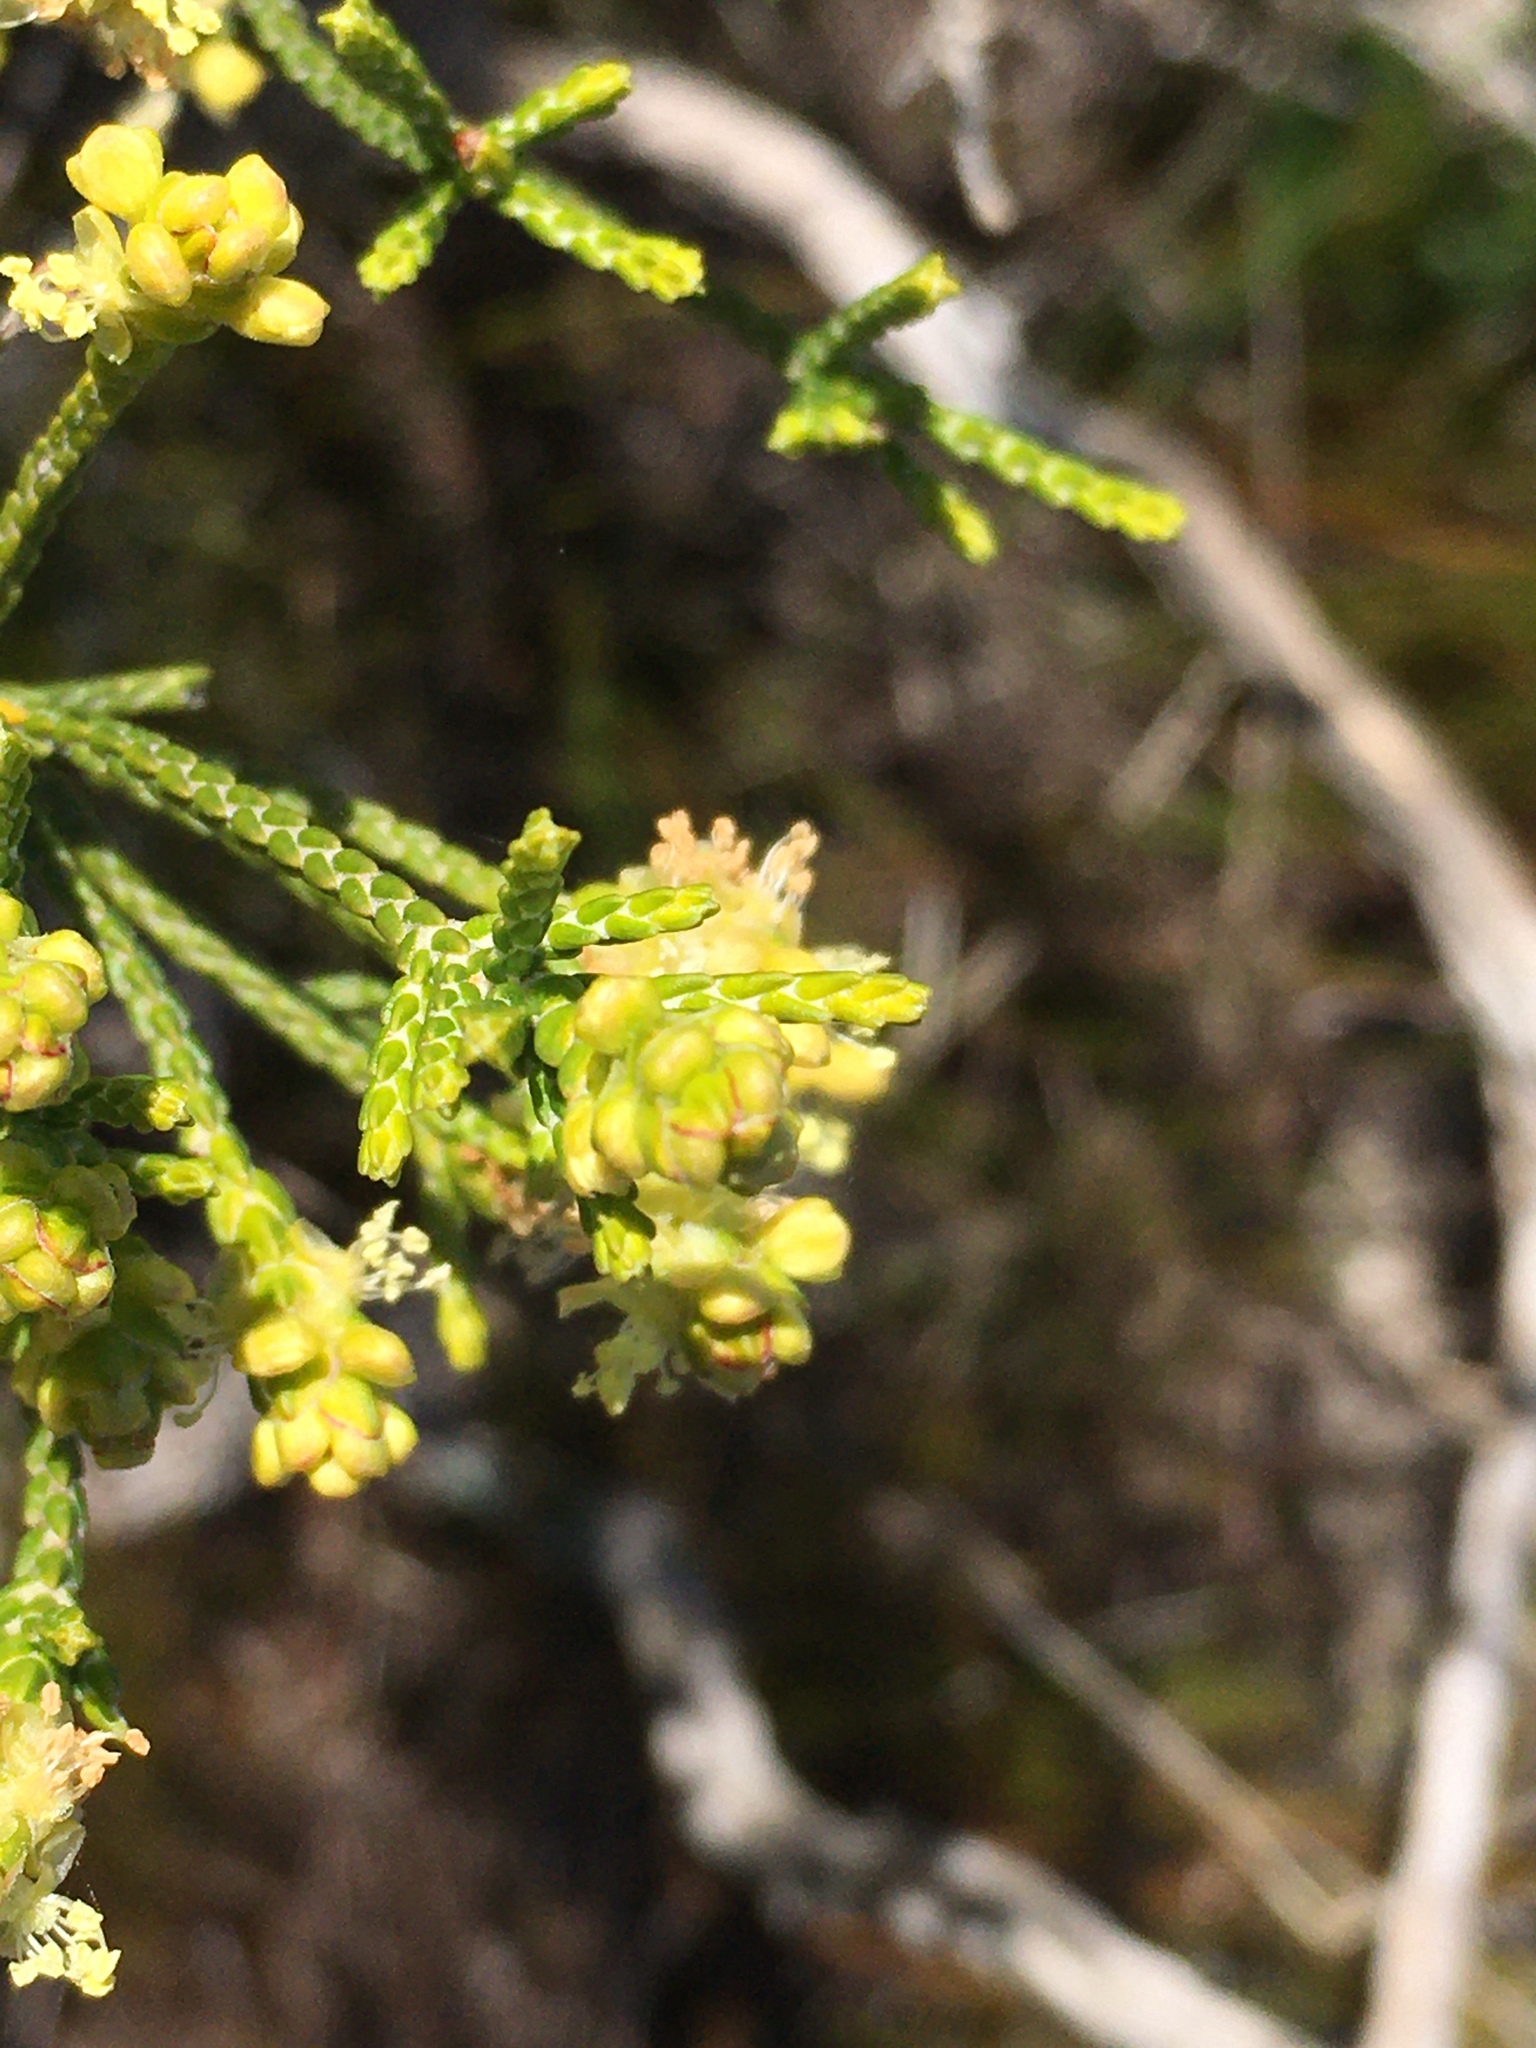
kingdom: Plantae
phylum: Tracheophyta
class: Magnoliopsida
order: Malvales
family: Thymelaeaceae
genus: Passerina
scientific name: Passerina paleacea
